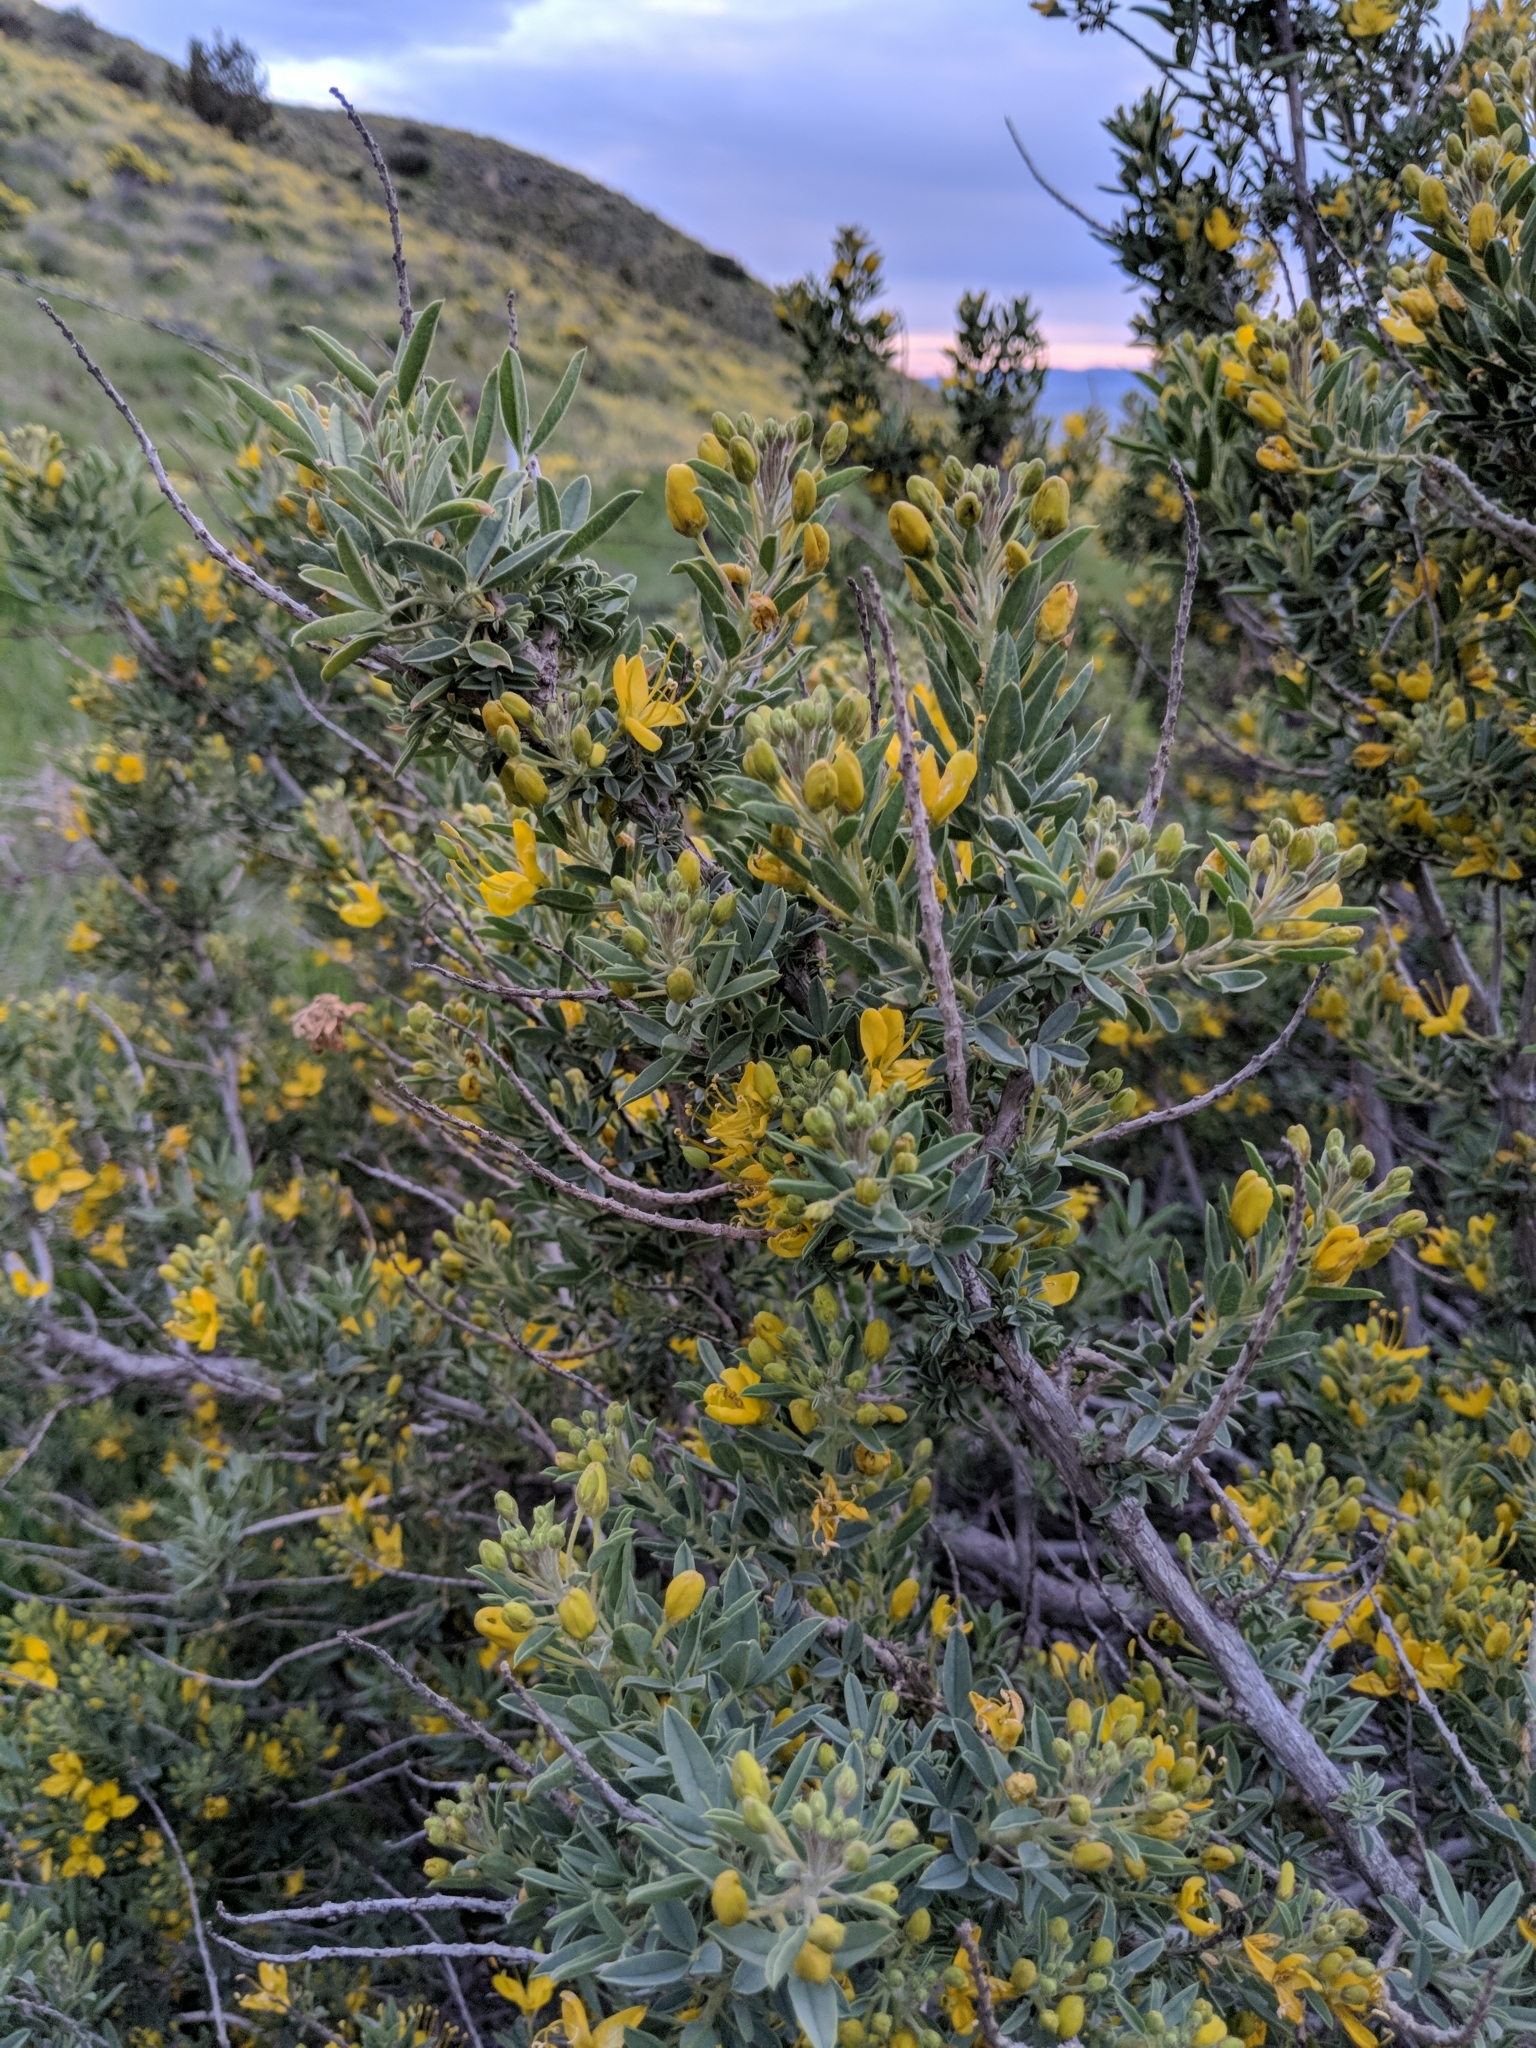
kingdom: Plantae
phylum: Tracheophyta
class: Magnoliopsida
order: Brassicales
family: Cleomaceae
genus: Cleomella
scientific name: Cleomella arborea
